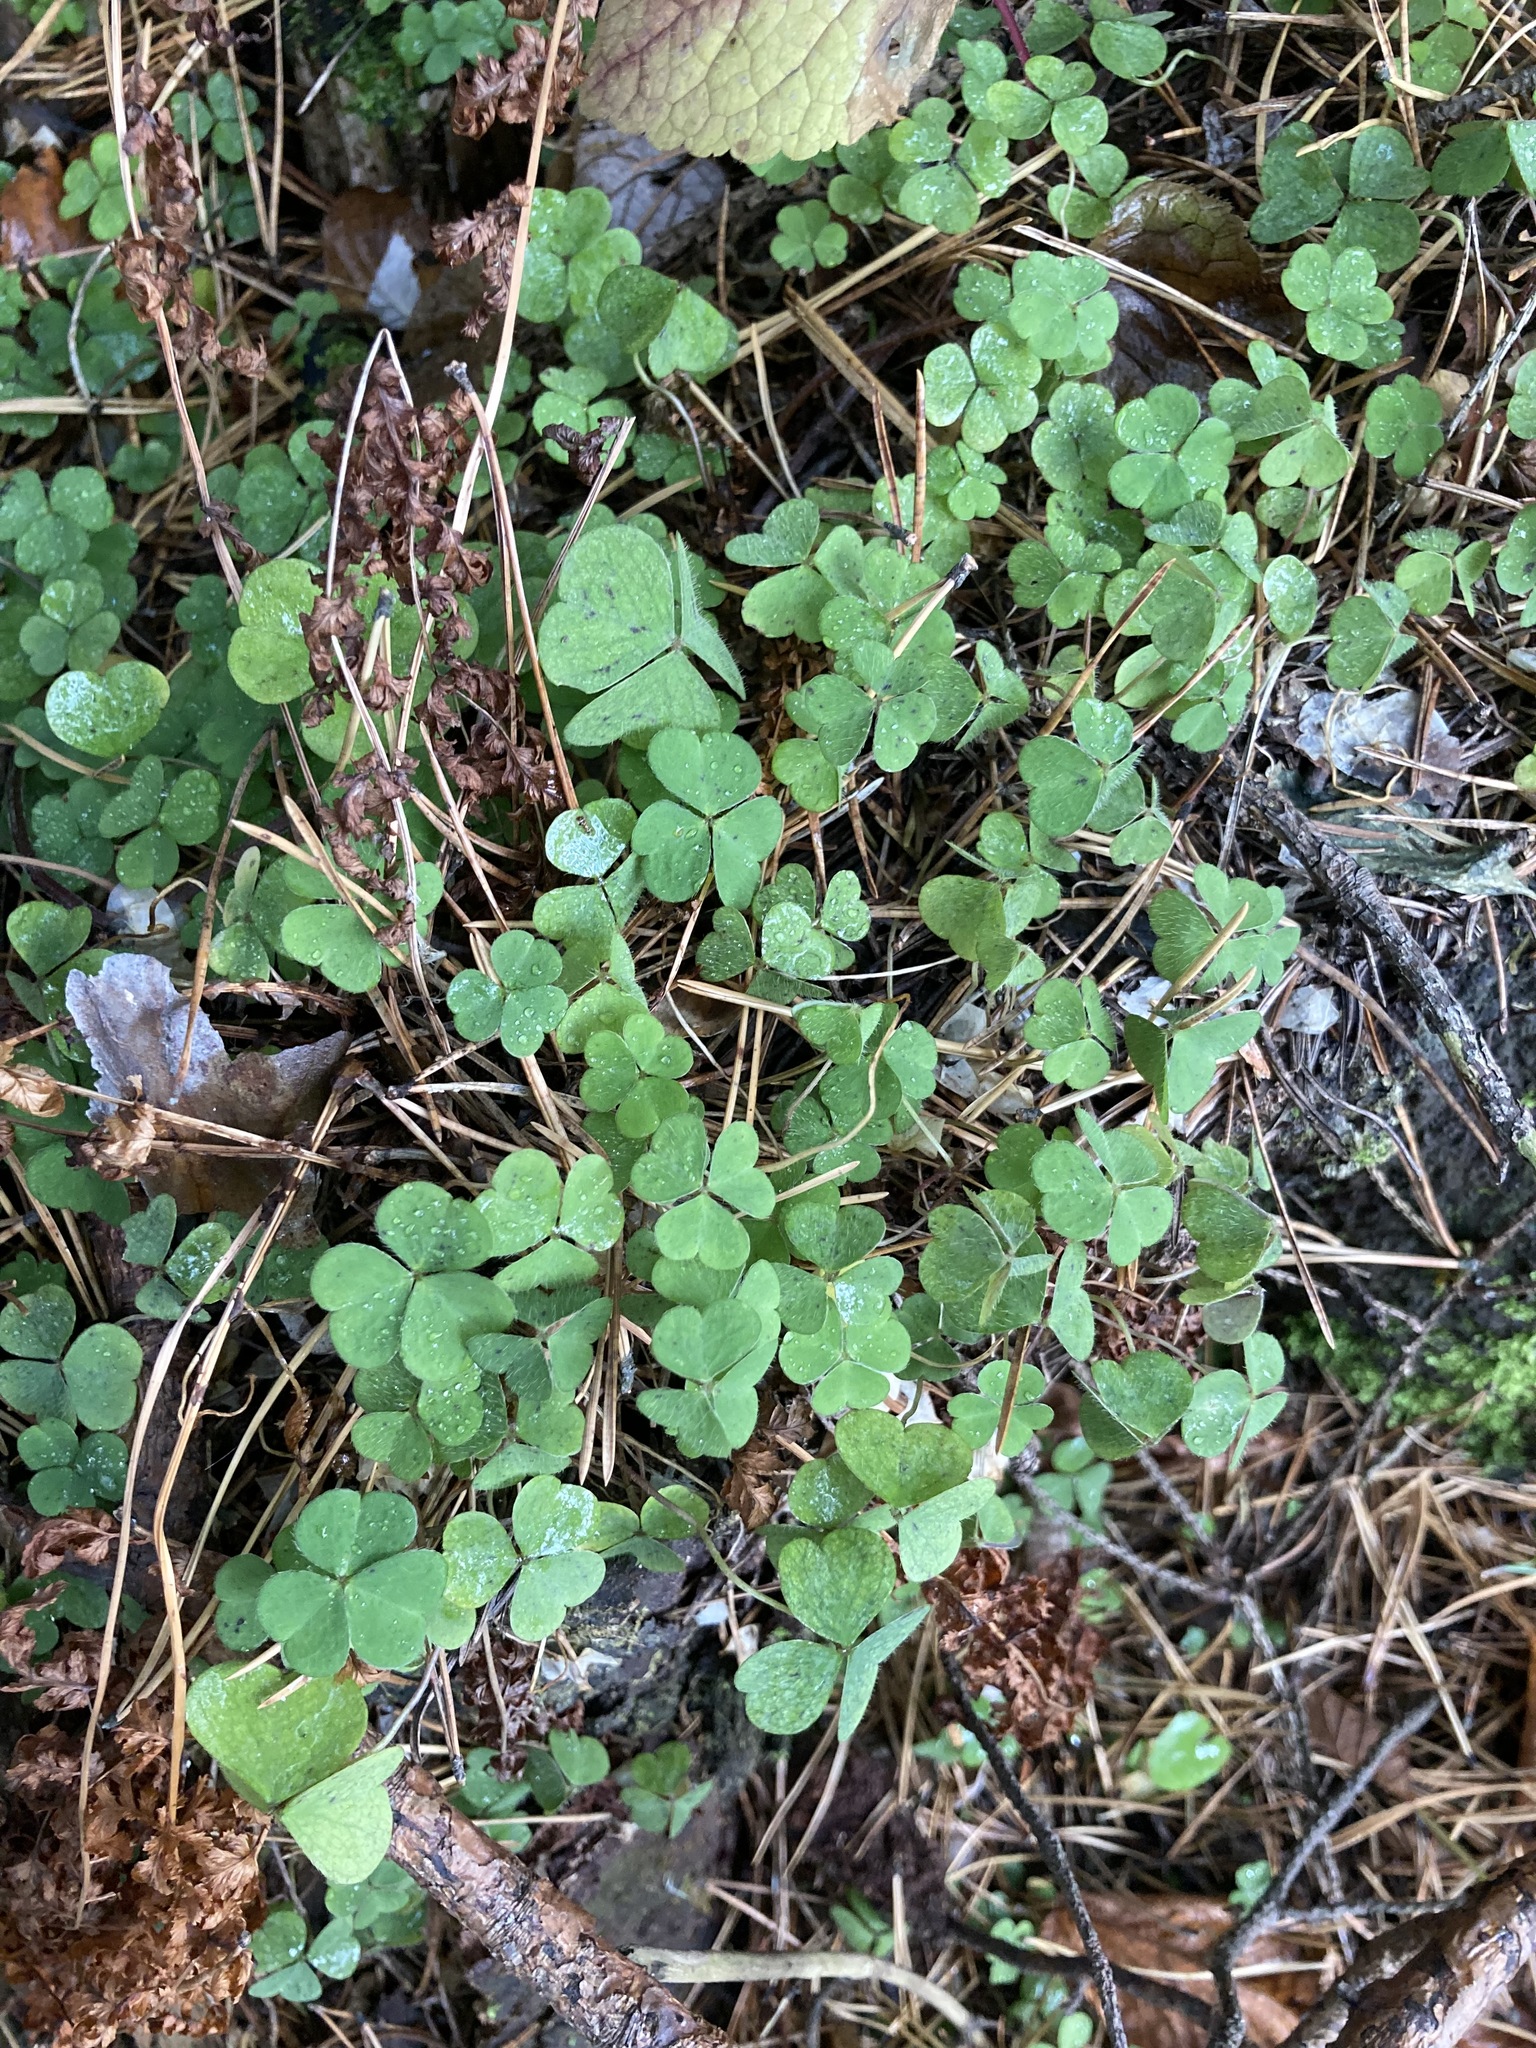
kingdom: Plantae
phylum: Tracheophyta
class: Magnoliopsida
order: Oxalidales
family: Oxalidaceae
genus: Oxalis
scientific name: Oxalis acetosella
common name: Wood-sorrel
